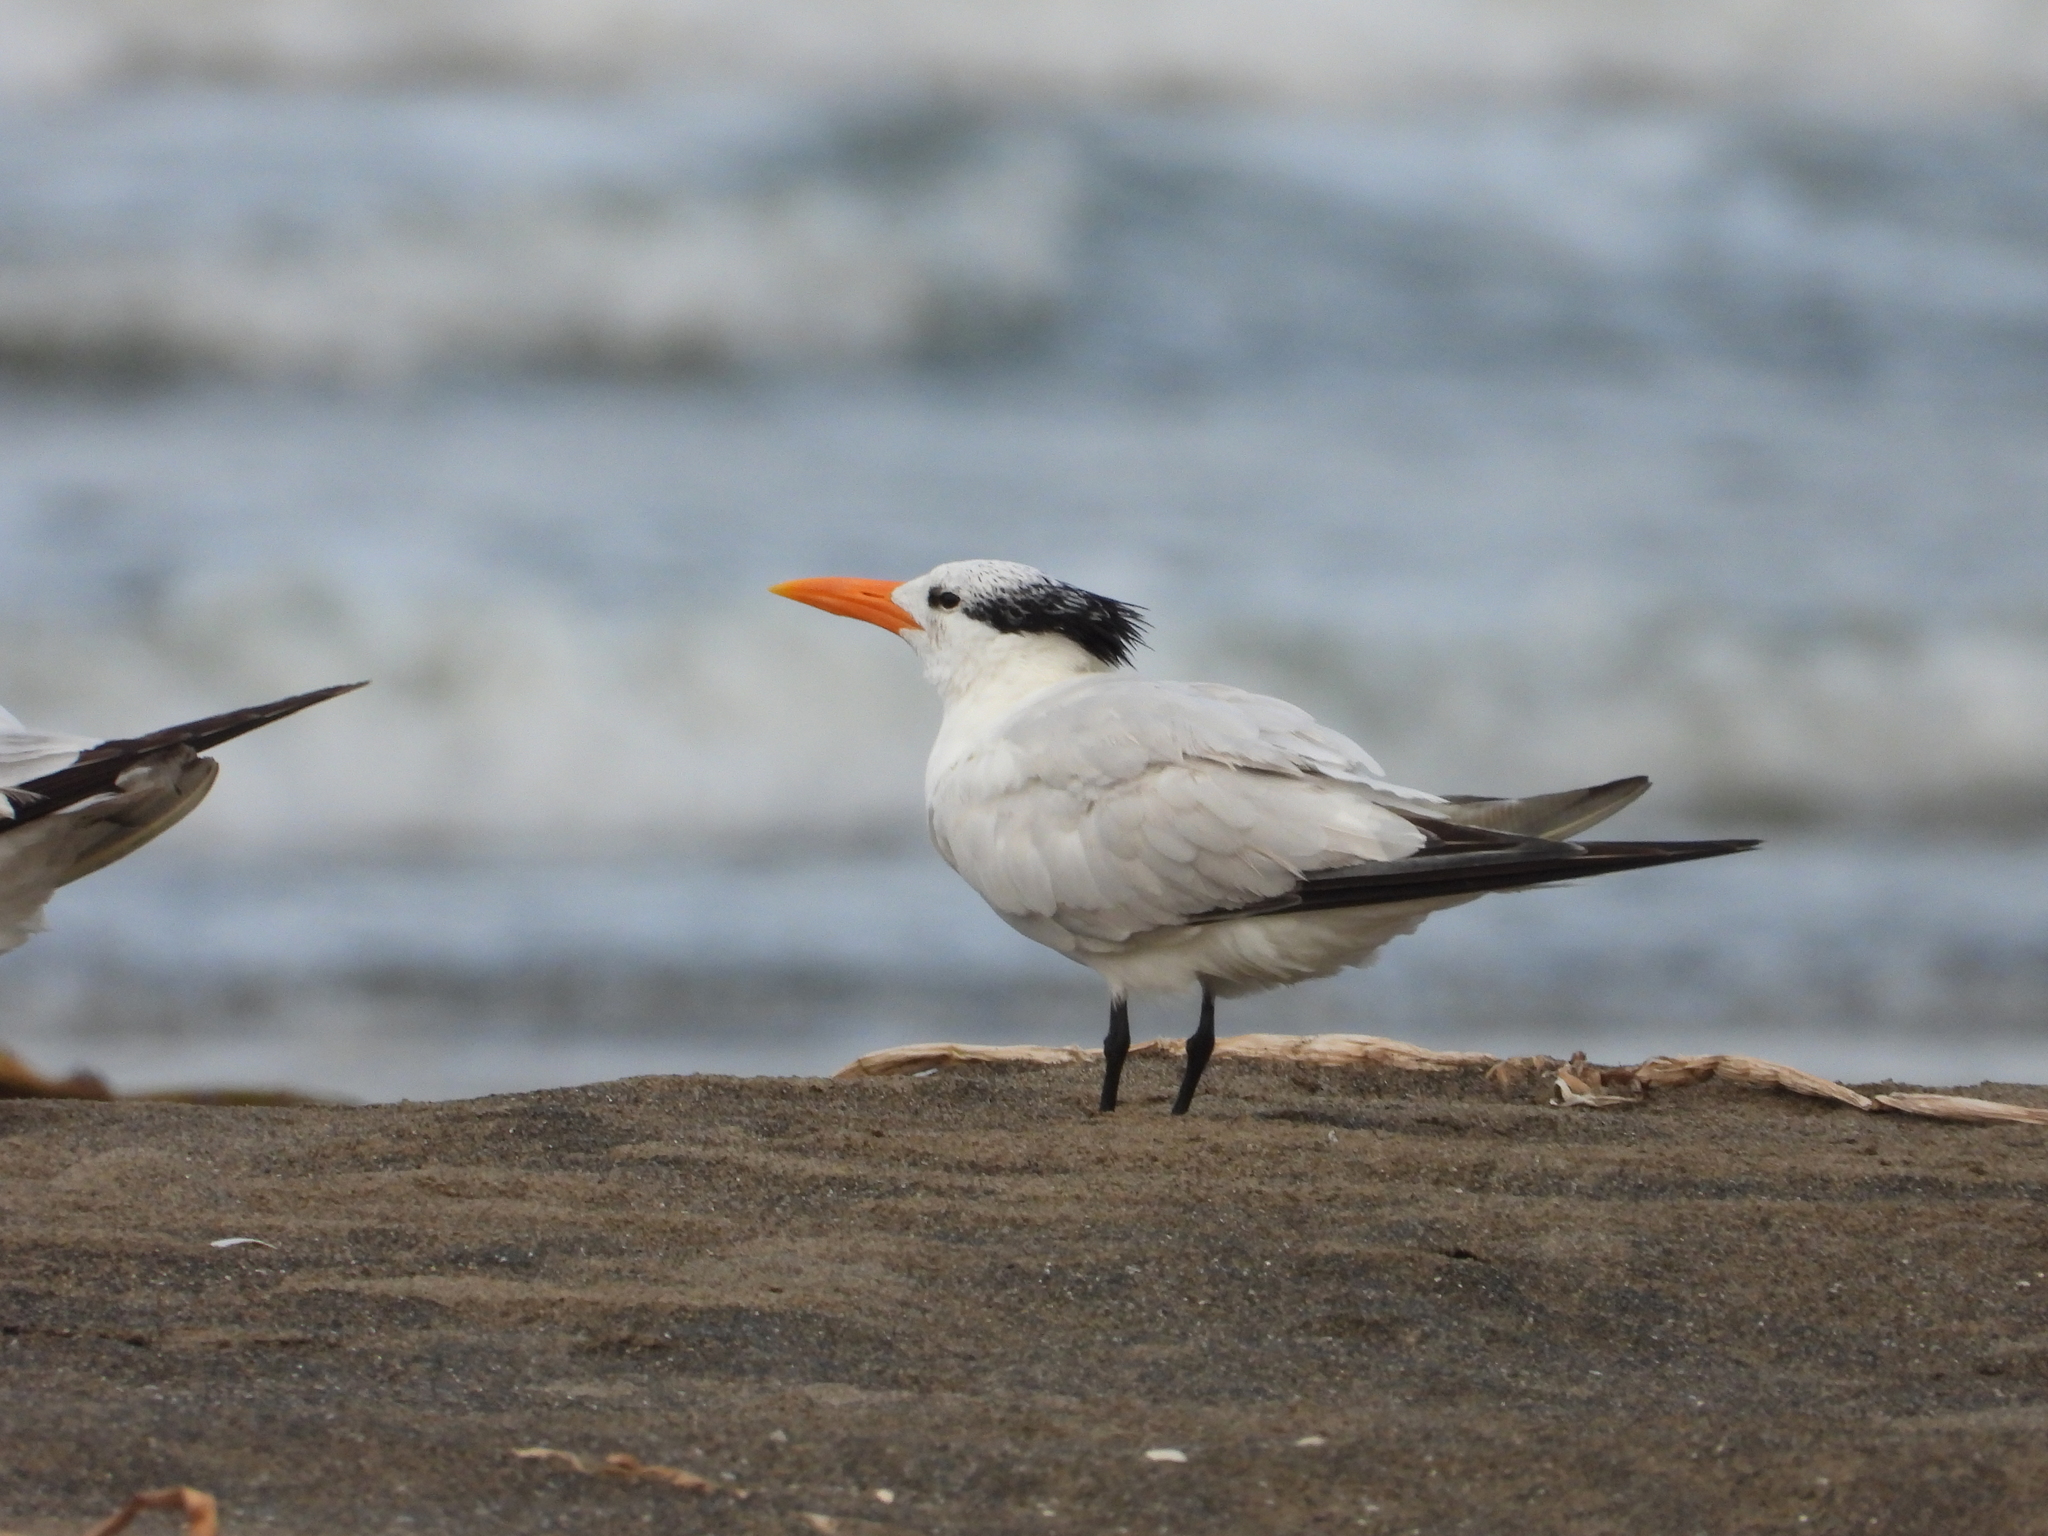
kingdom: Animalia
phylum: Chordata
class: Aves
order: Charadriiformes
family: Laridae
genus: Thalasseus
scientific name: Thalasseus maximus
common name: Royal tern
